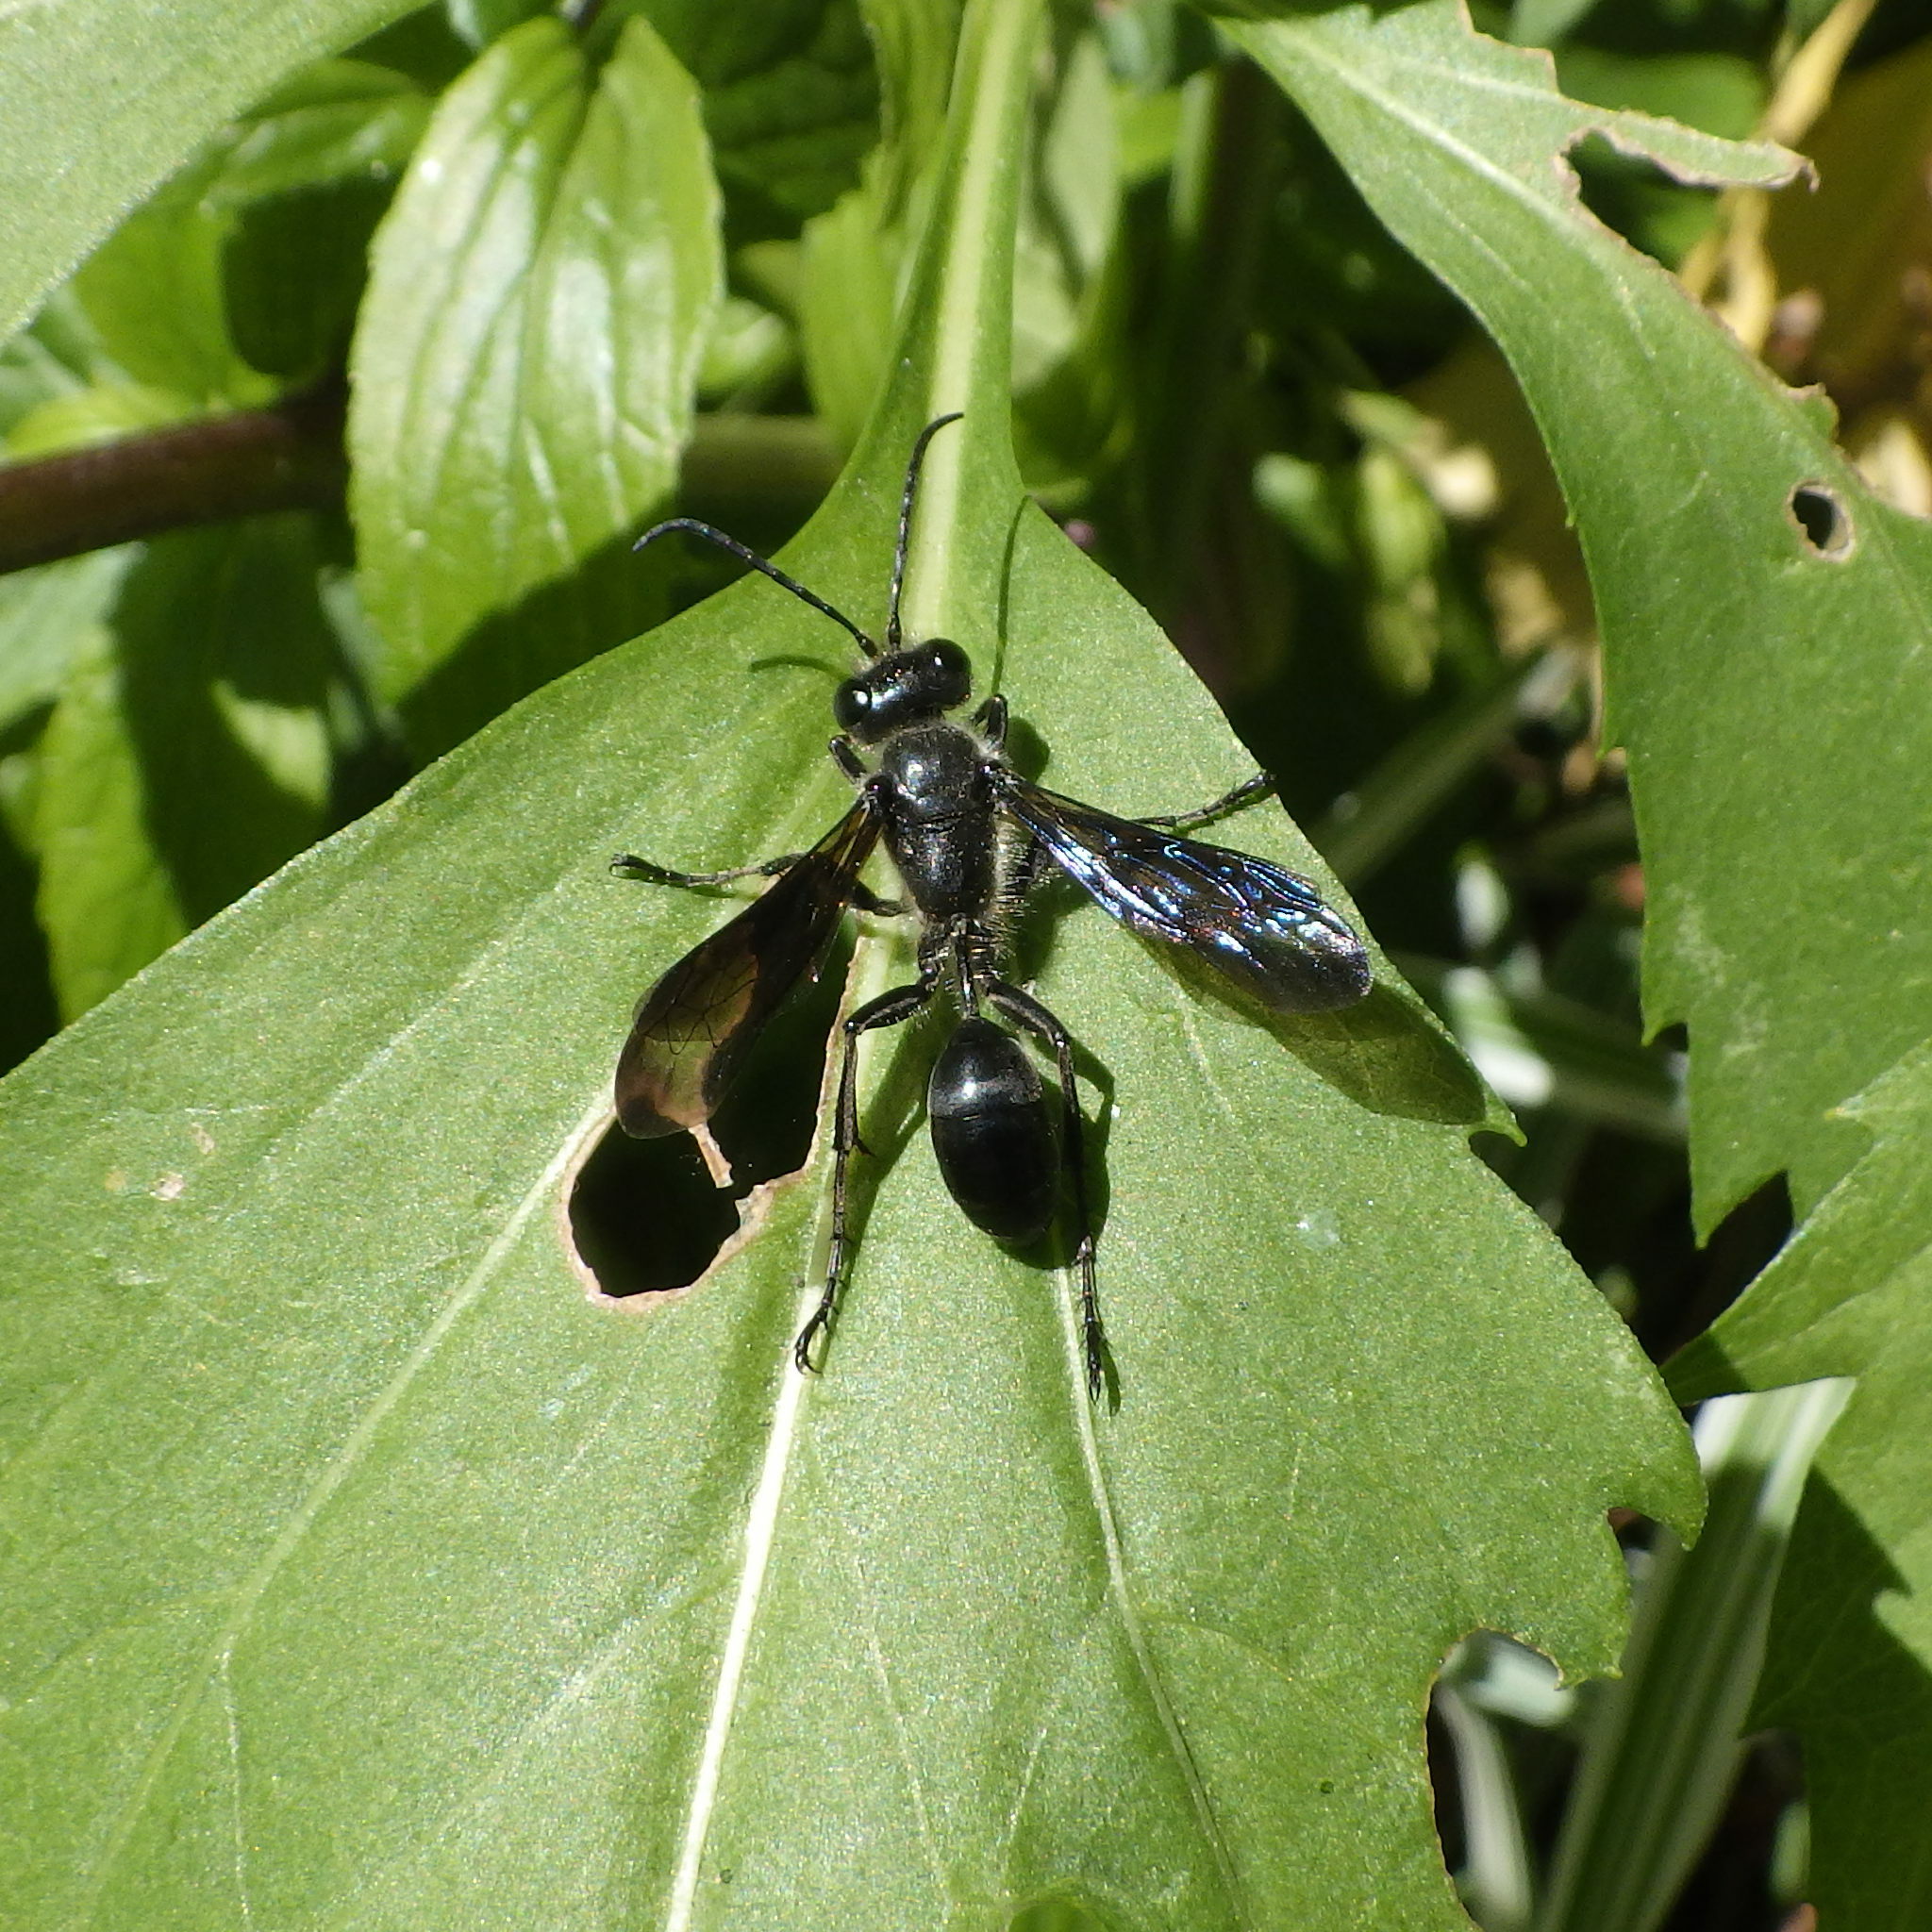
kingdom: Animalia
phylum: Arthropoda
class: Insecta
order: Hymenoptera
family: Sphecidae
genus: Isodontia
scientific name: Isodontia mexicana
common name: Mud dauber
